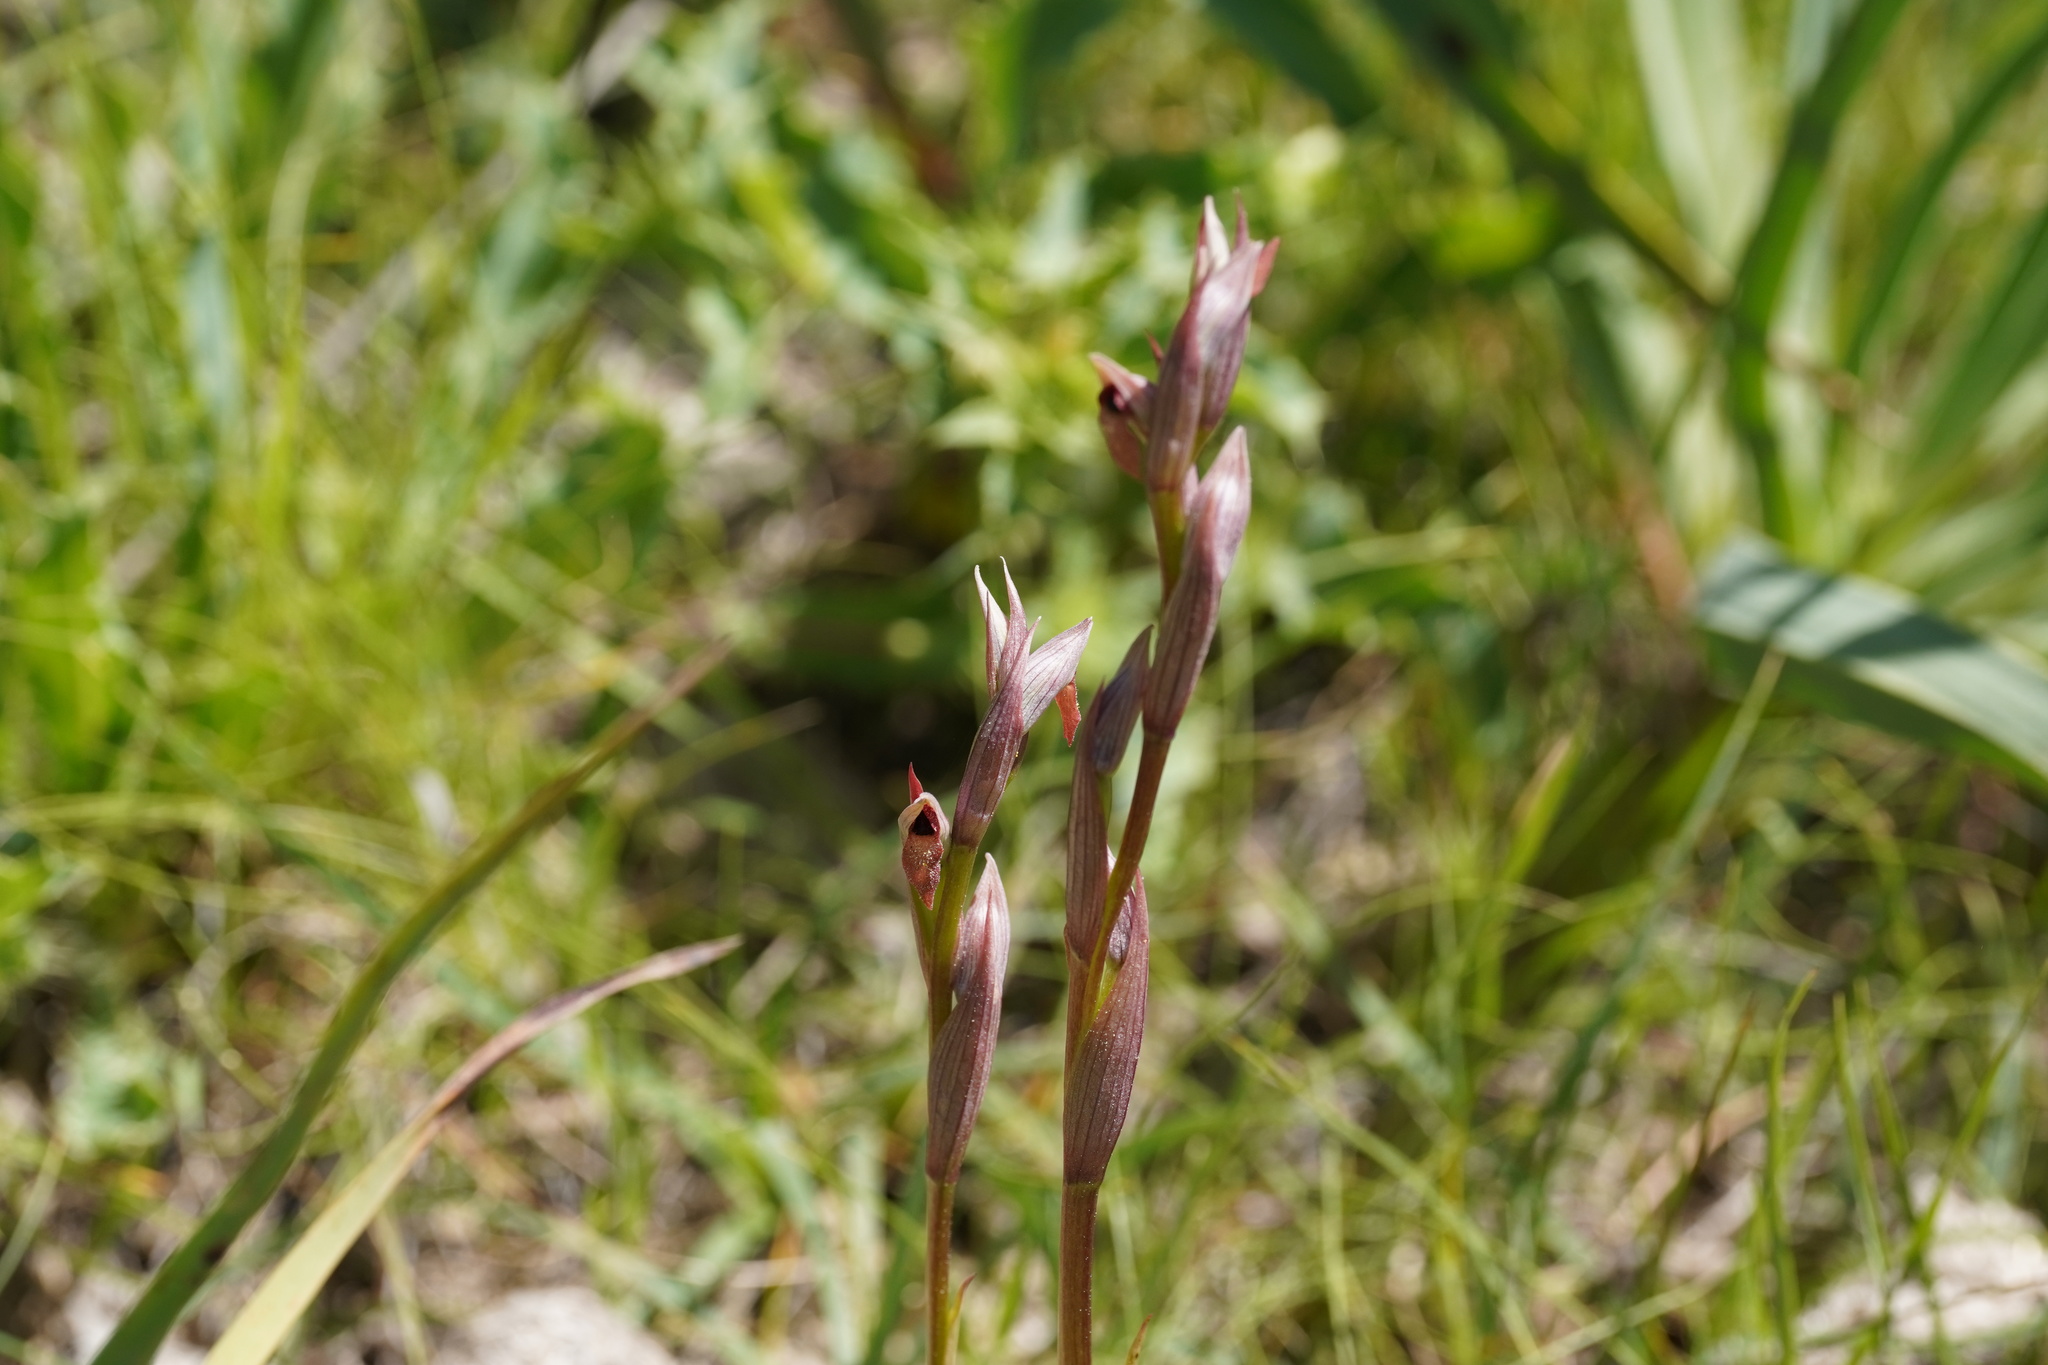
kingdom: Plantae
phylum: Tracheophyta
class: Liliopsida
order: Asparagales
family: Orchidaceae
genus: Serapias
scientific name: Serapias parviflora
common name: Small-flowered tongue-orchid
